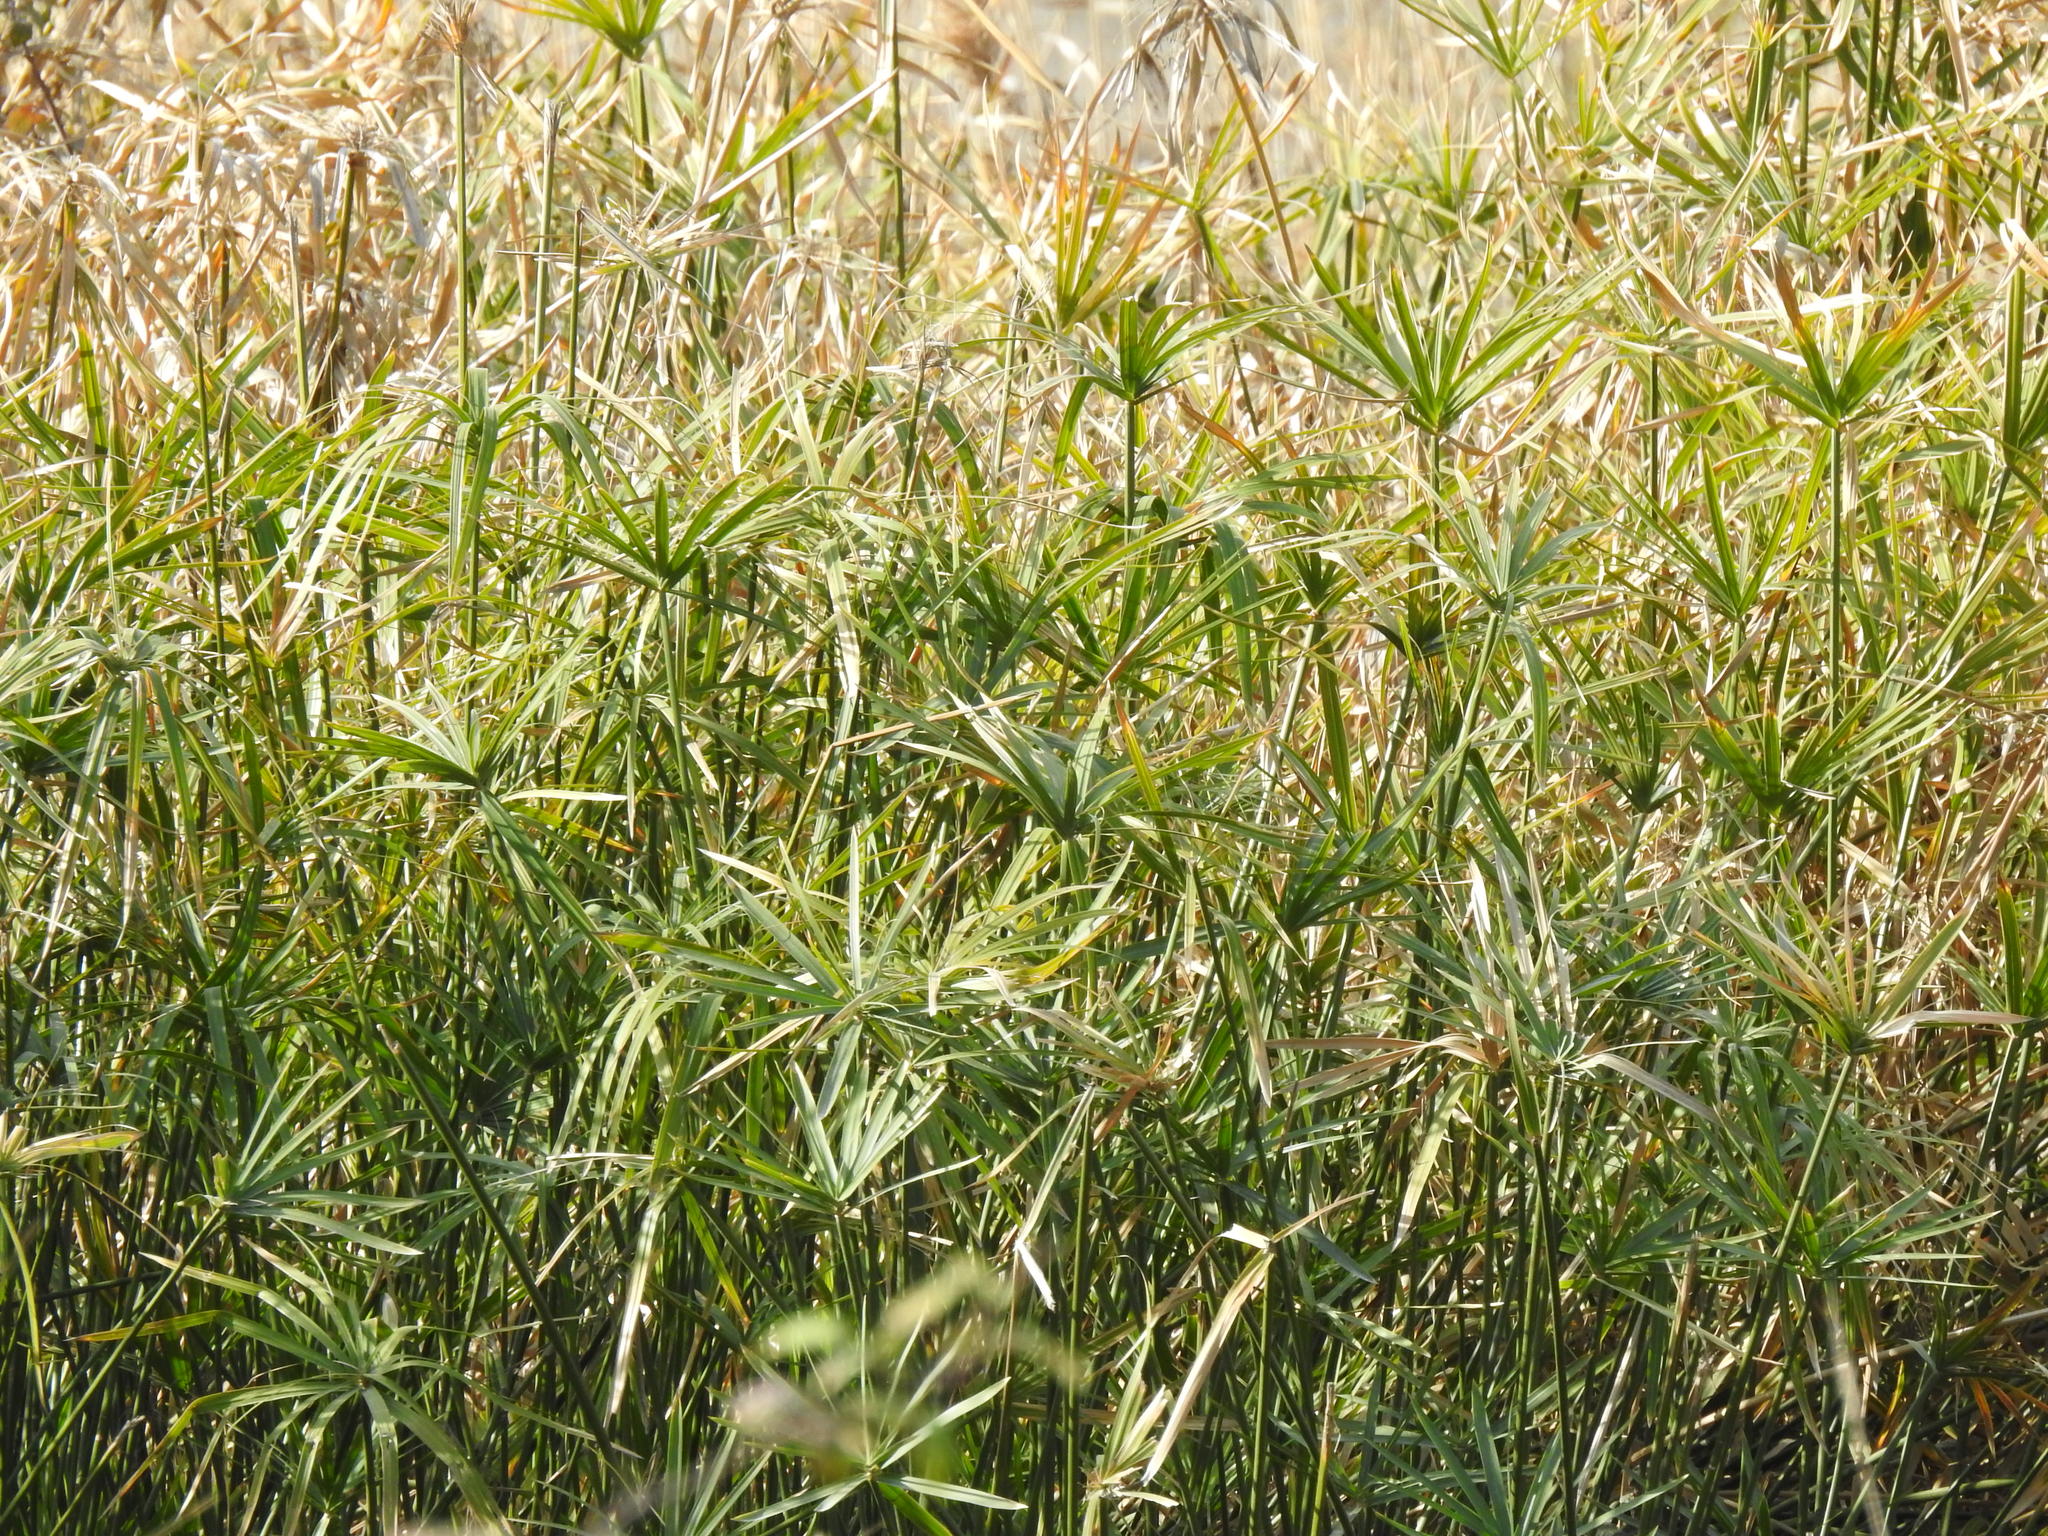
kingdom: Plantae
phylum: Tracheophyta
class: Liliopsida
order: Poales
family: Cyperaceae
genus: Cyperus
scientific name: Cyperus alternifolius
